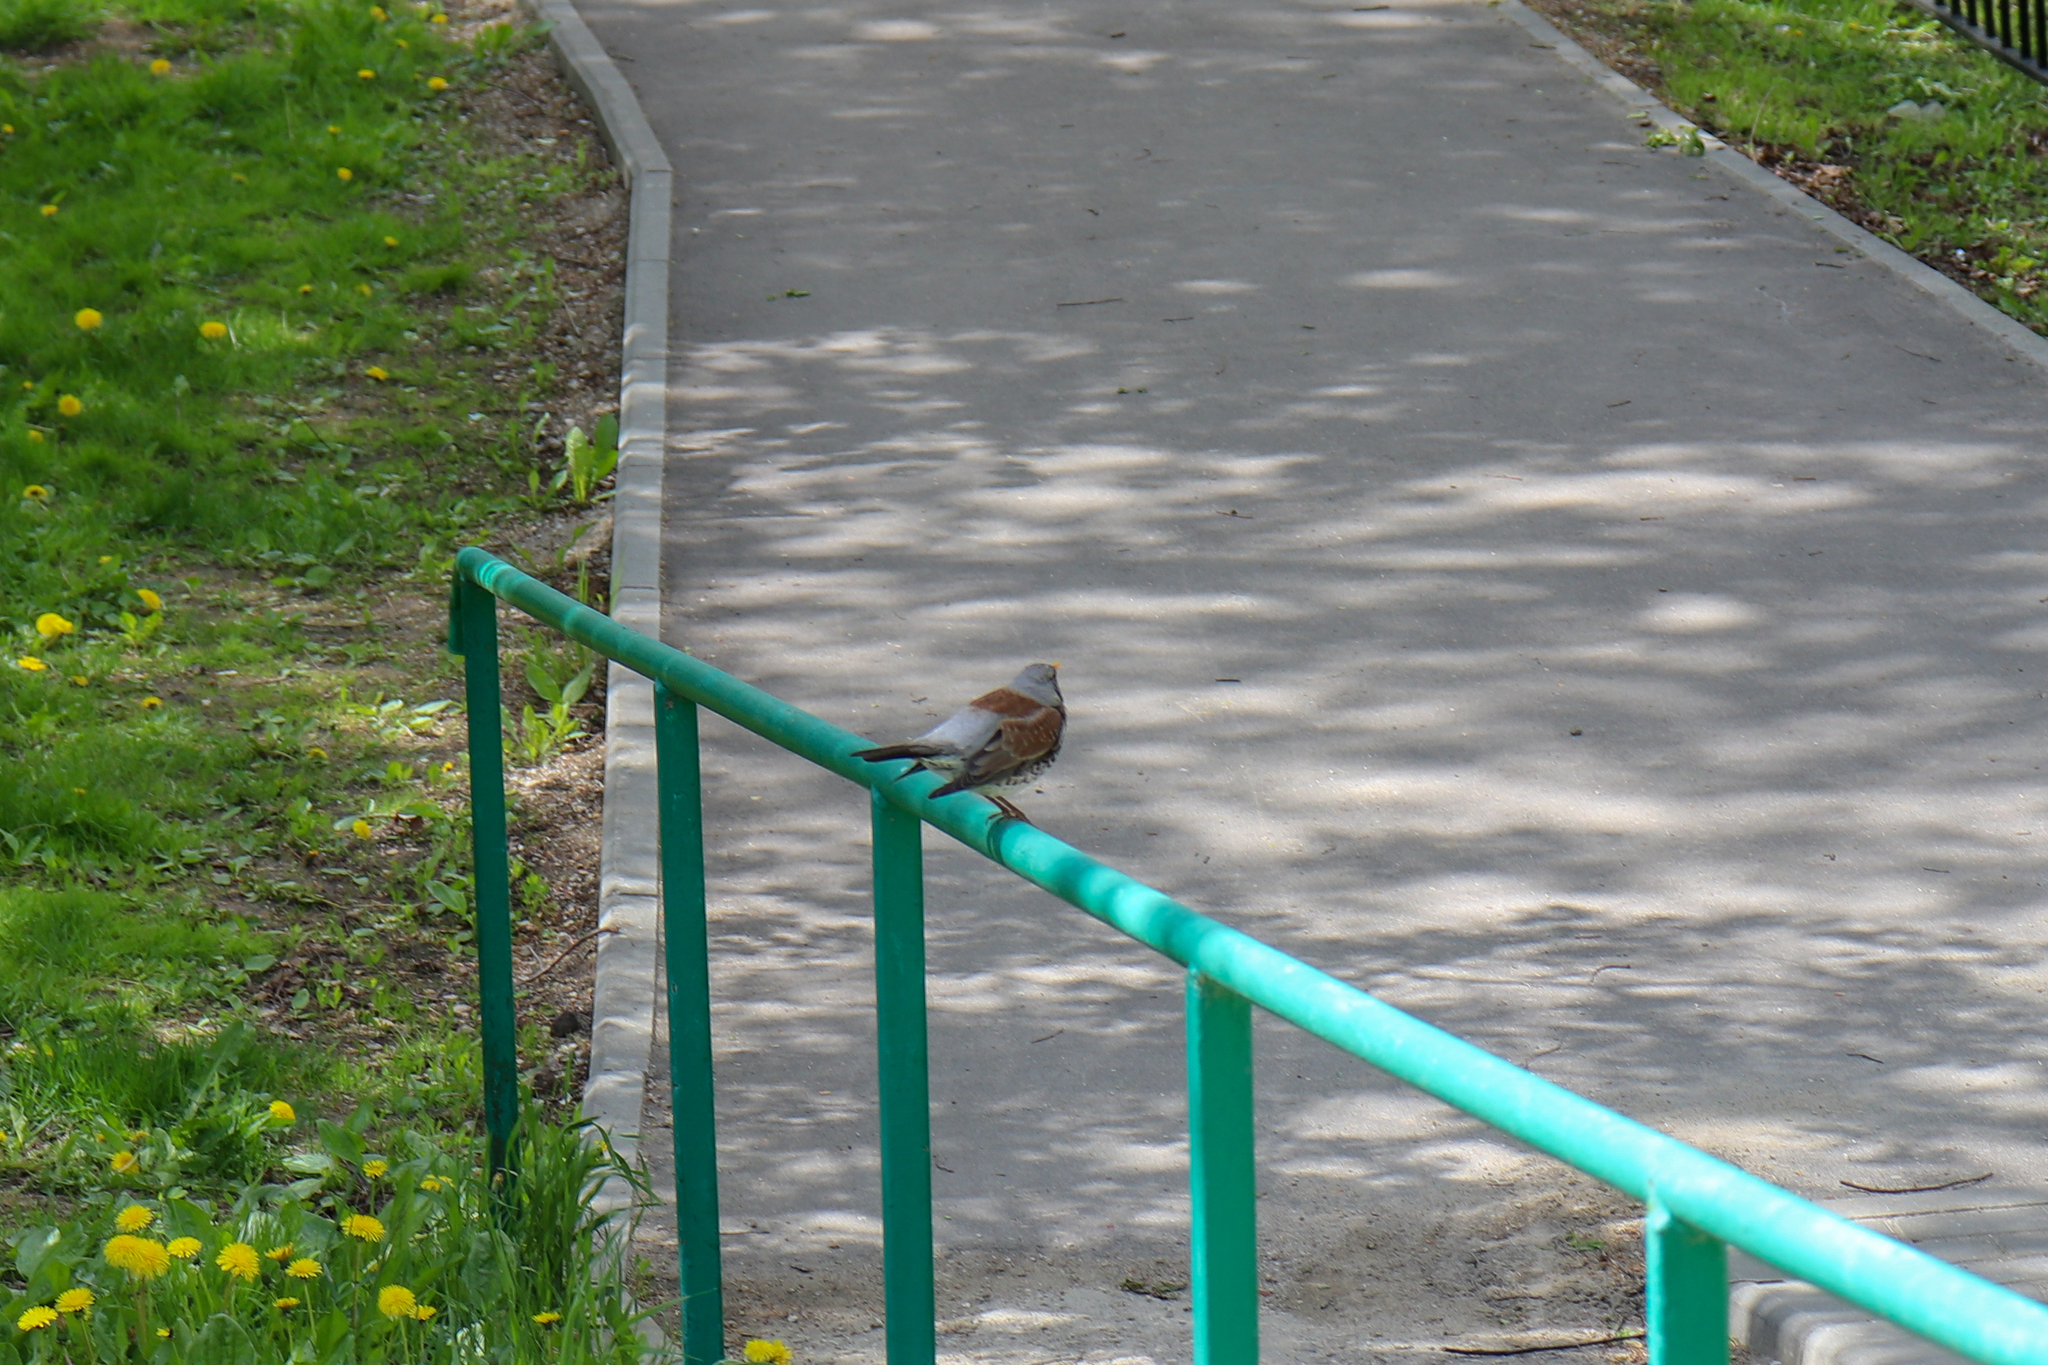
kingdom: Animalia
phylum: Chordata
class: Aves
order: Passeriformes
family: Turdidae
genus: Turdus
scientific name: Turdus pilaris
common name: Fieldfare
